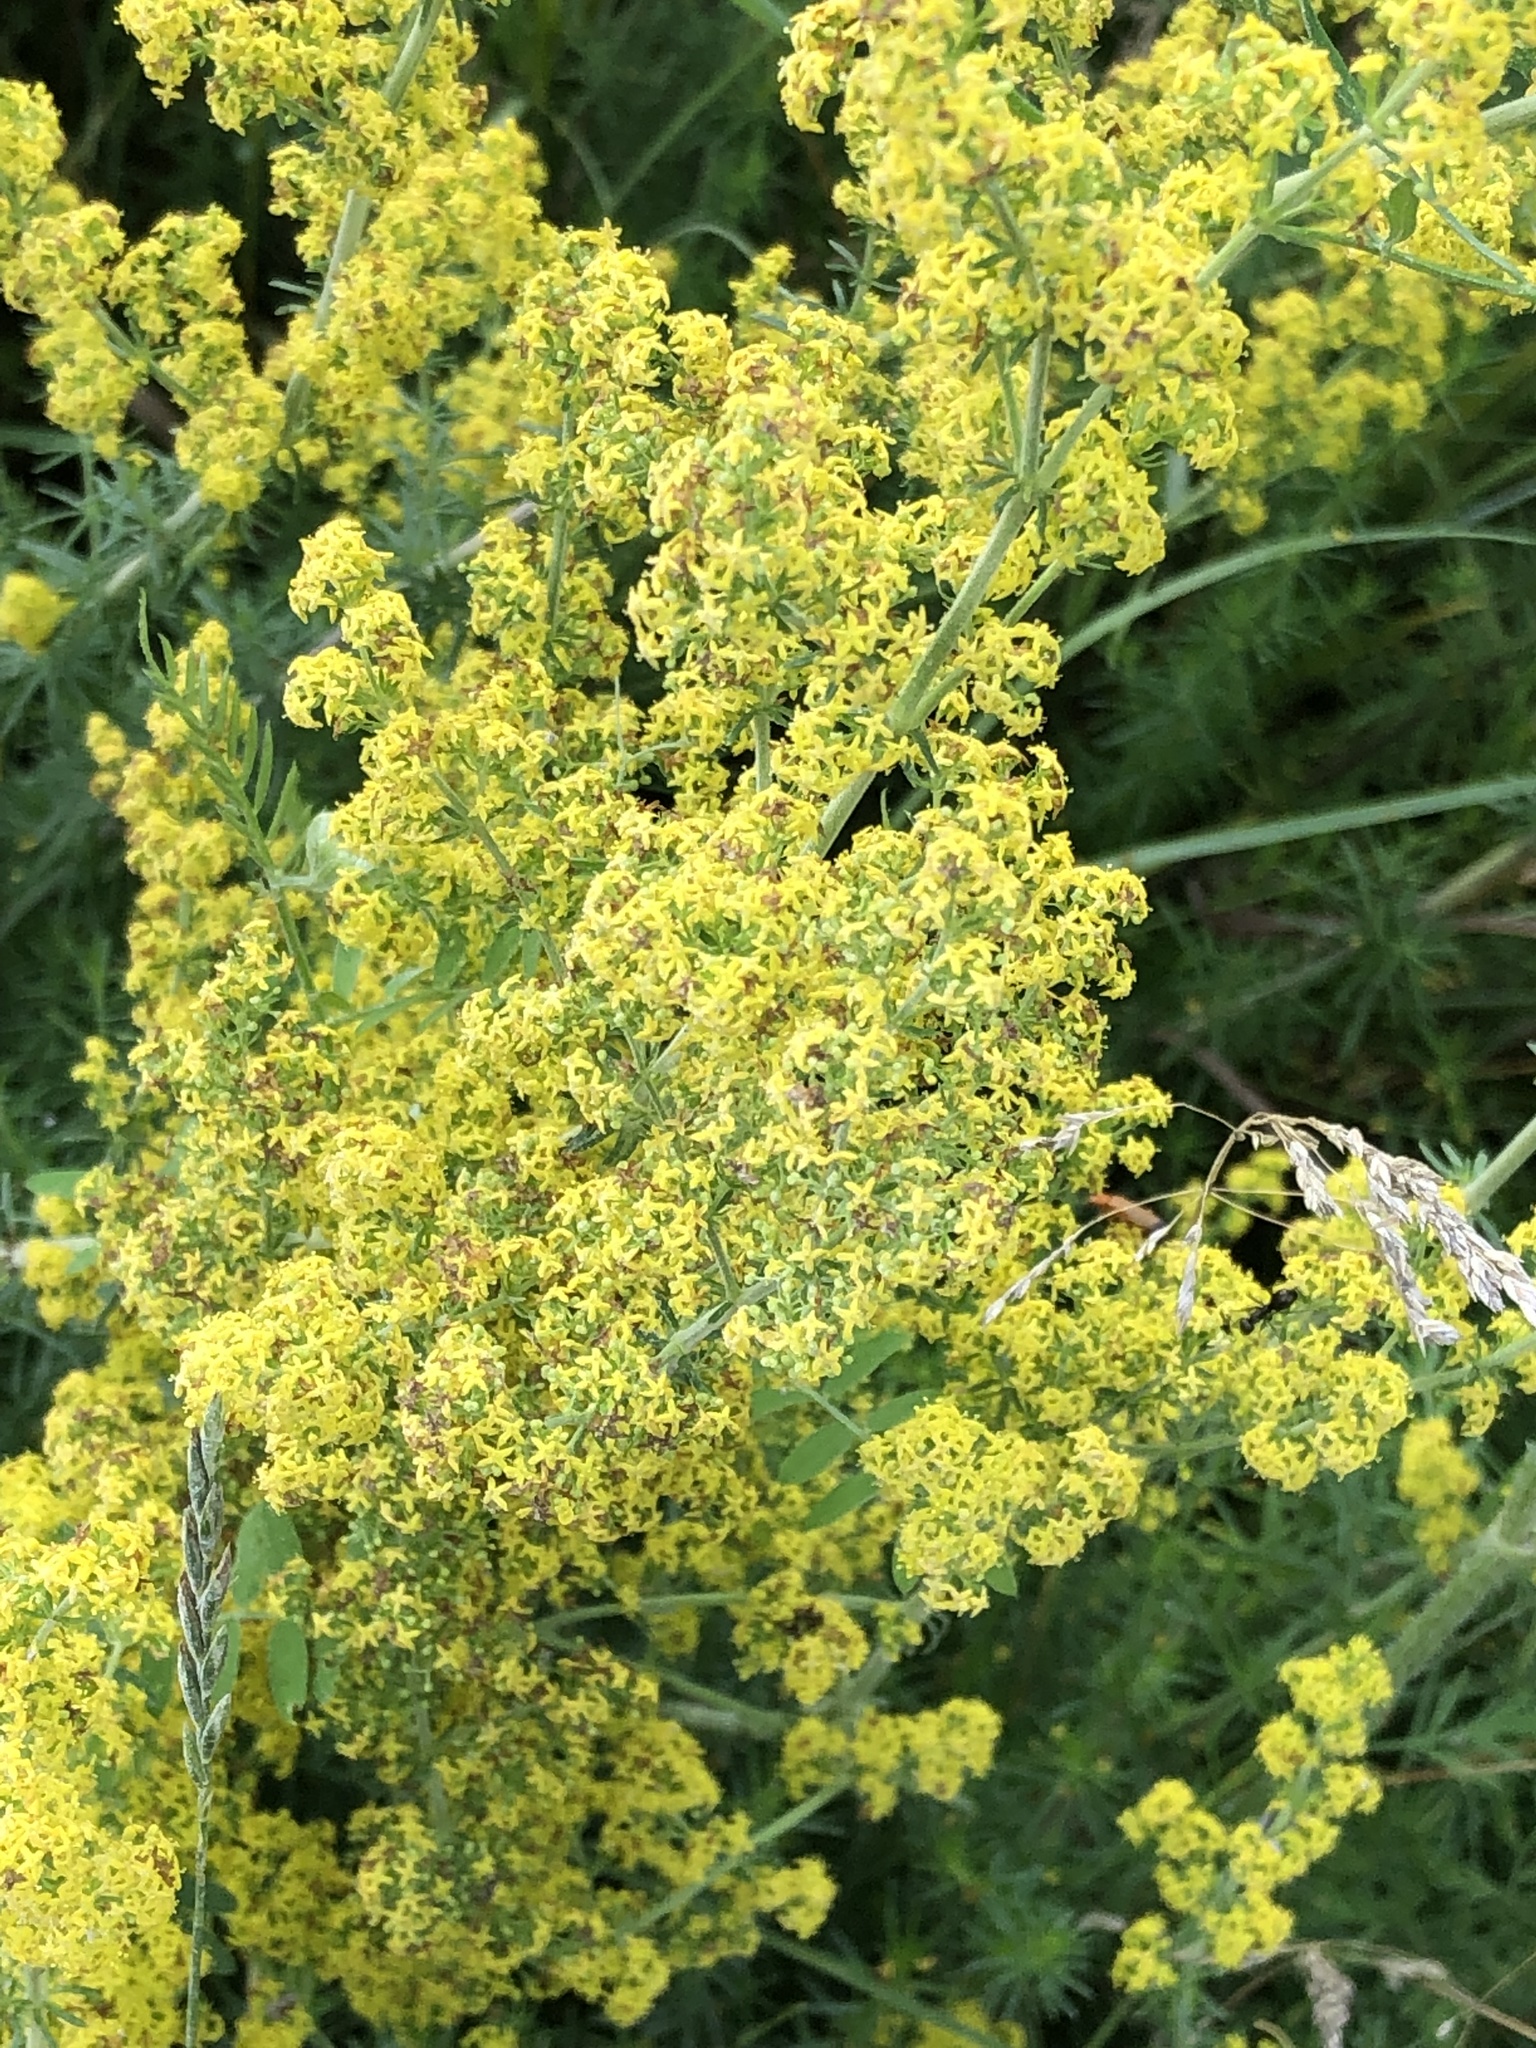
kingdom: Plantae
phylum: Tracheophyta
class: Magnoliopsida
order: Gentianales
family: Rubiaceae
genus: Galium
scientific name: Galium verum
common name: Lady's bedstraw
